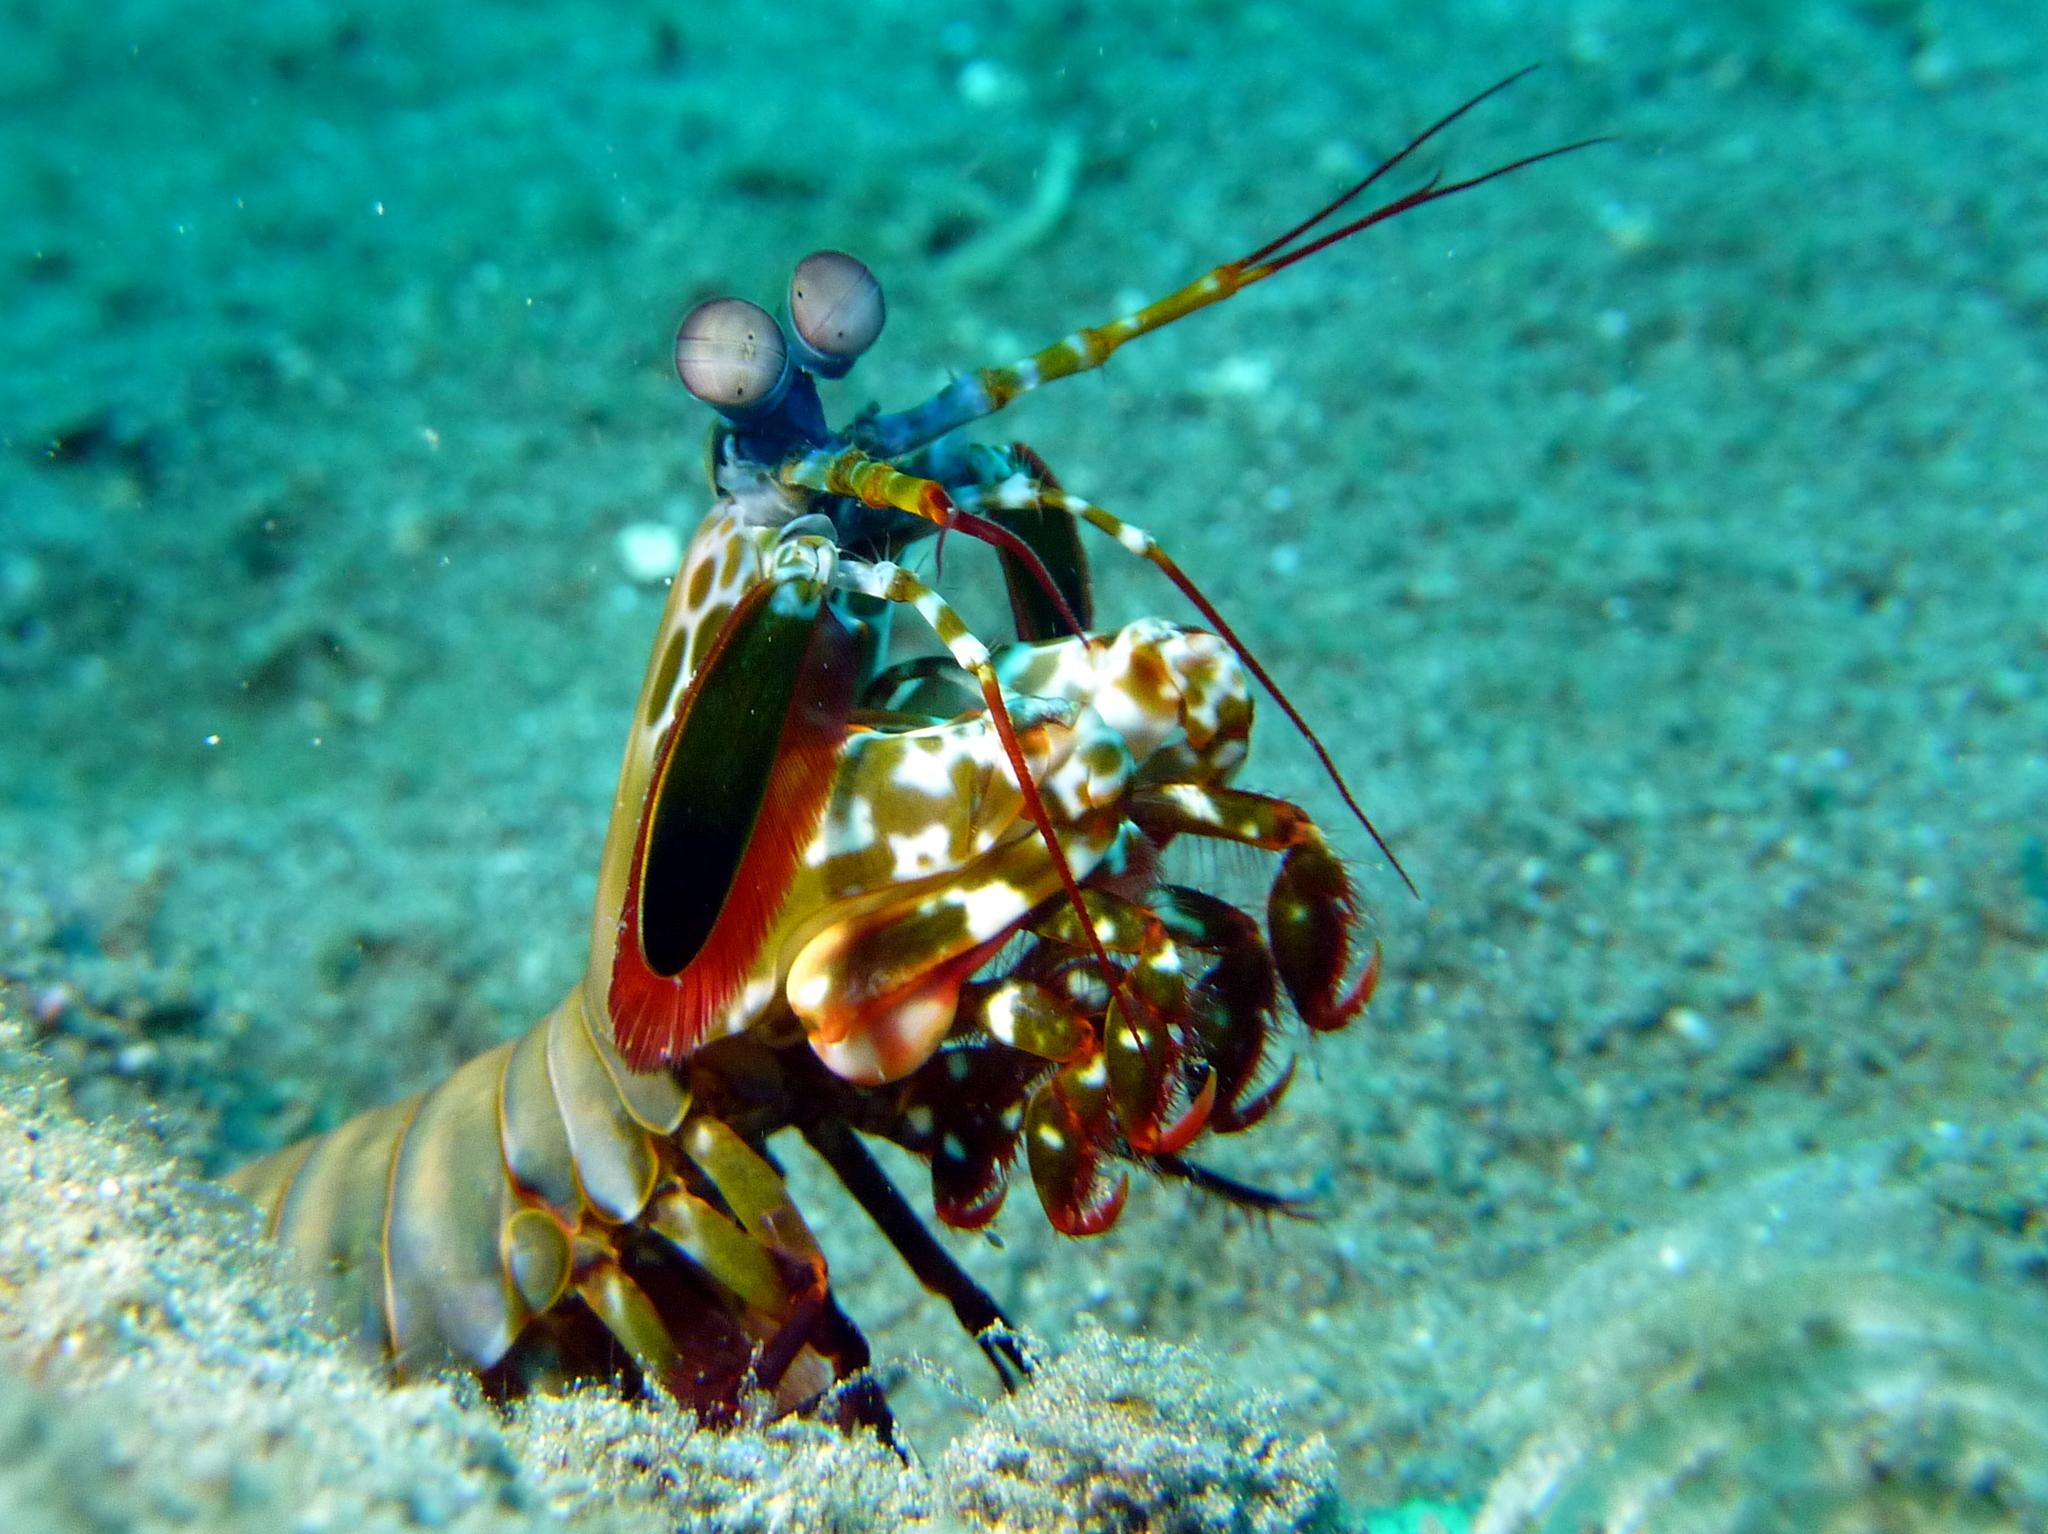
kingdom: Animalia
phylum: Arthropoda
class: Malacostraca
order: Stomatopoda
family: Odontodactylidae
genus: Odontodactylus
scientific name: Odontodactylus scyllarus
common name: Peacock mantis shrimp
